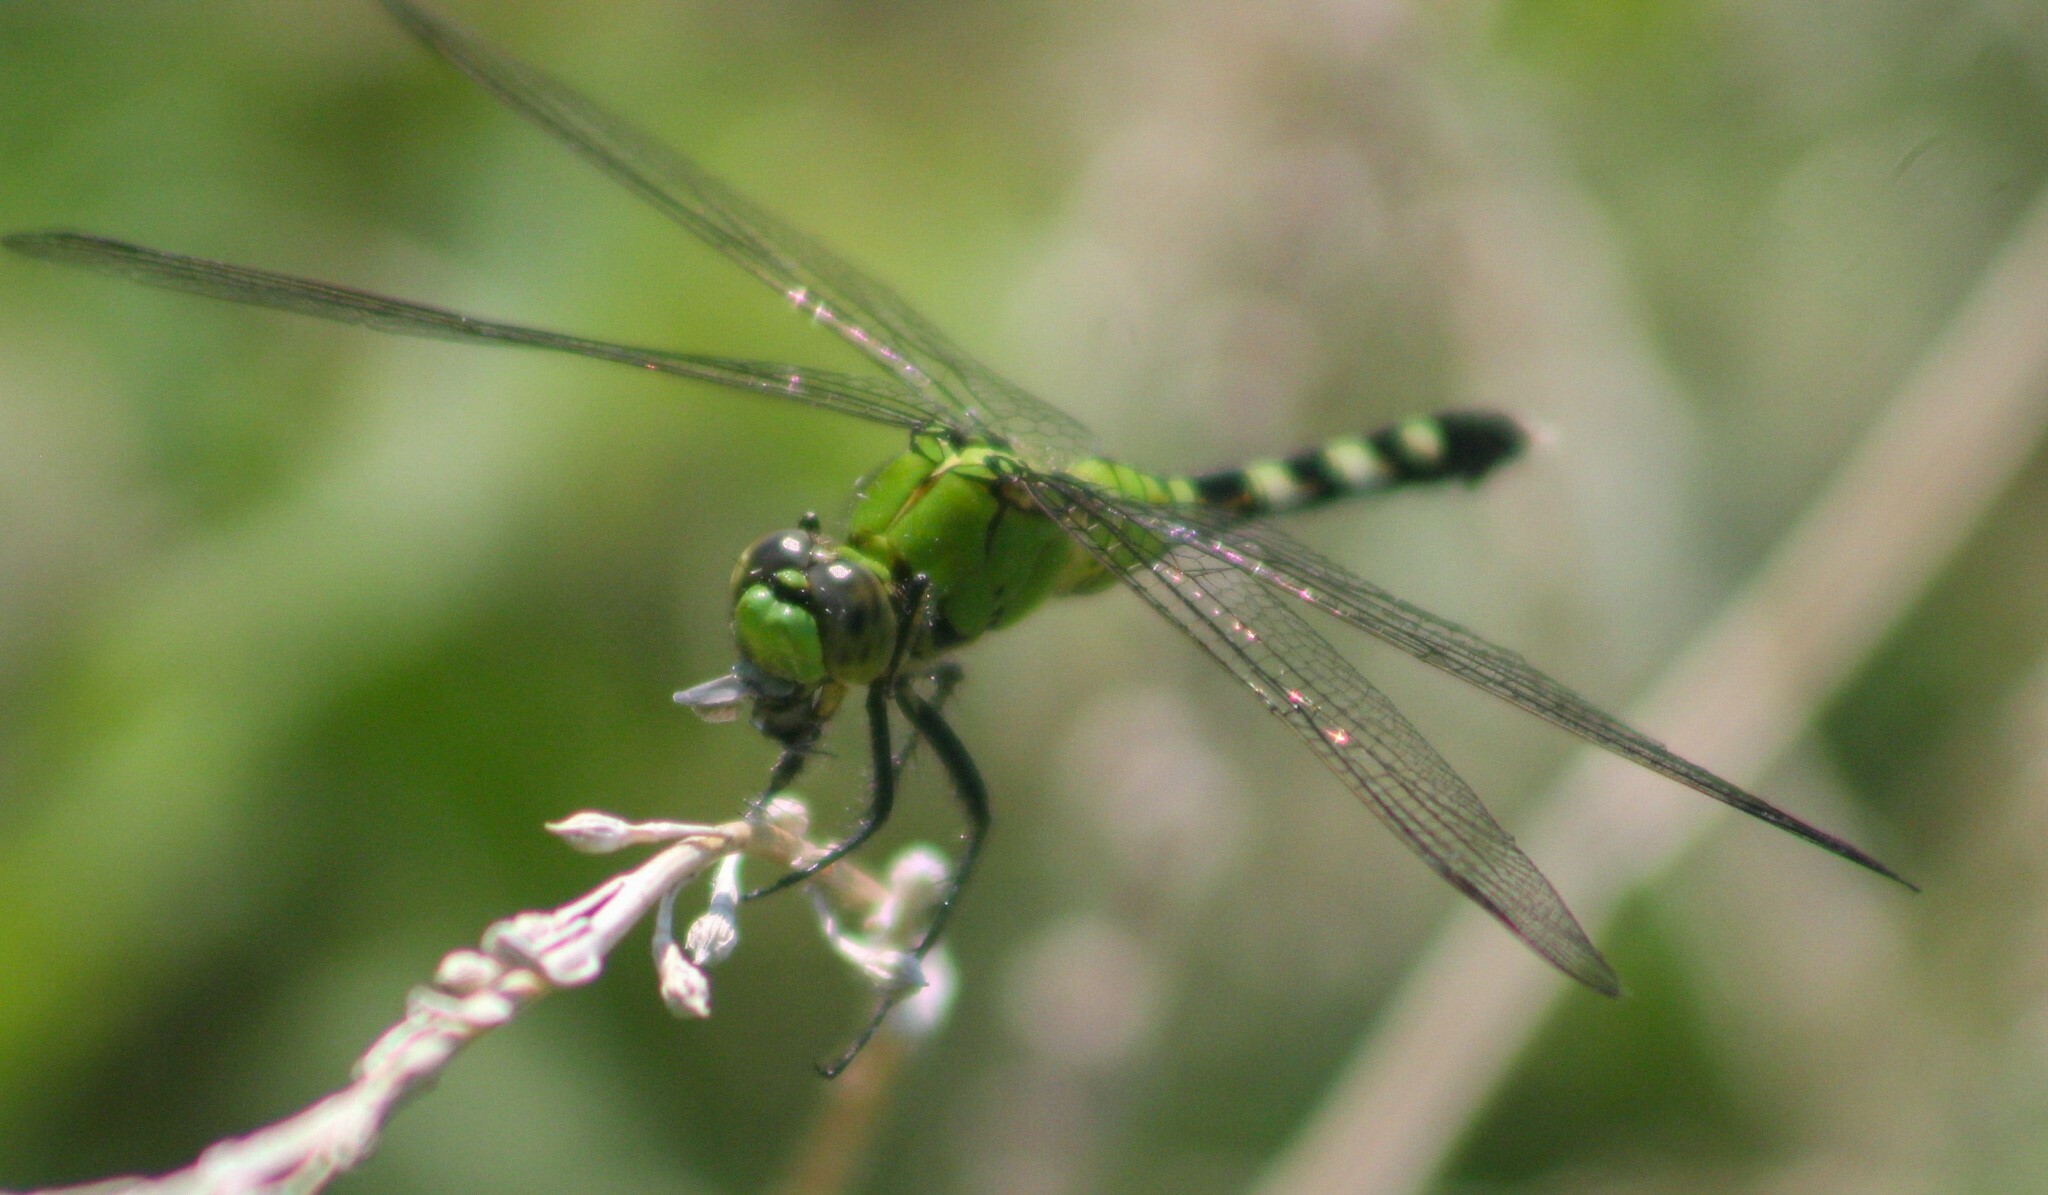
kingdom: Animalia
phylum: Arthropoda
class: Insecta
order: Odonata
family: Libellulidae
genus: Erythemis
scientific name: Erythemis simplicicollis
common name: Eastern pondhawk
